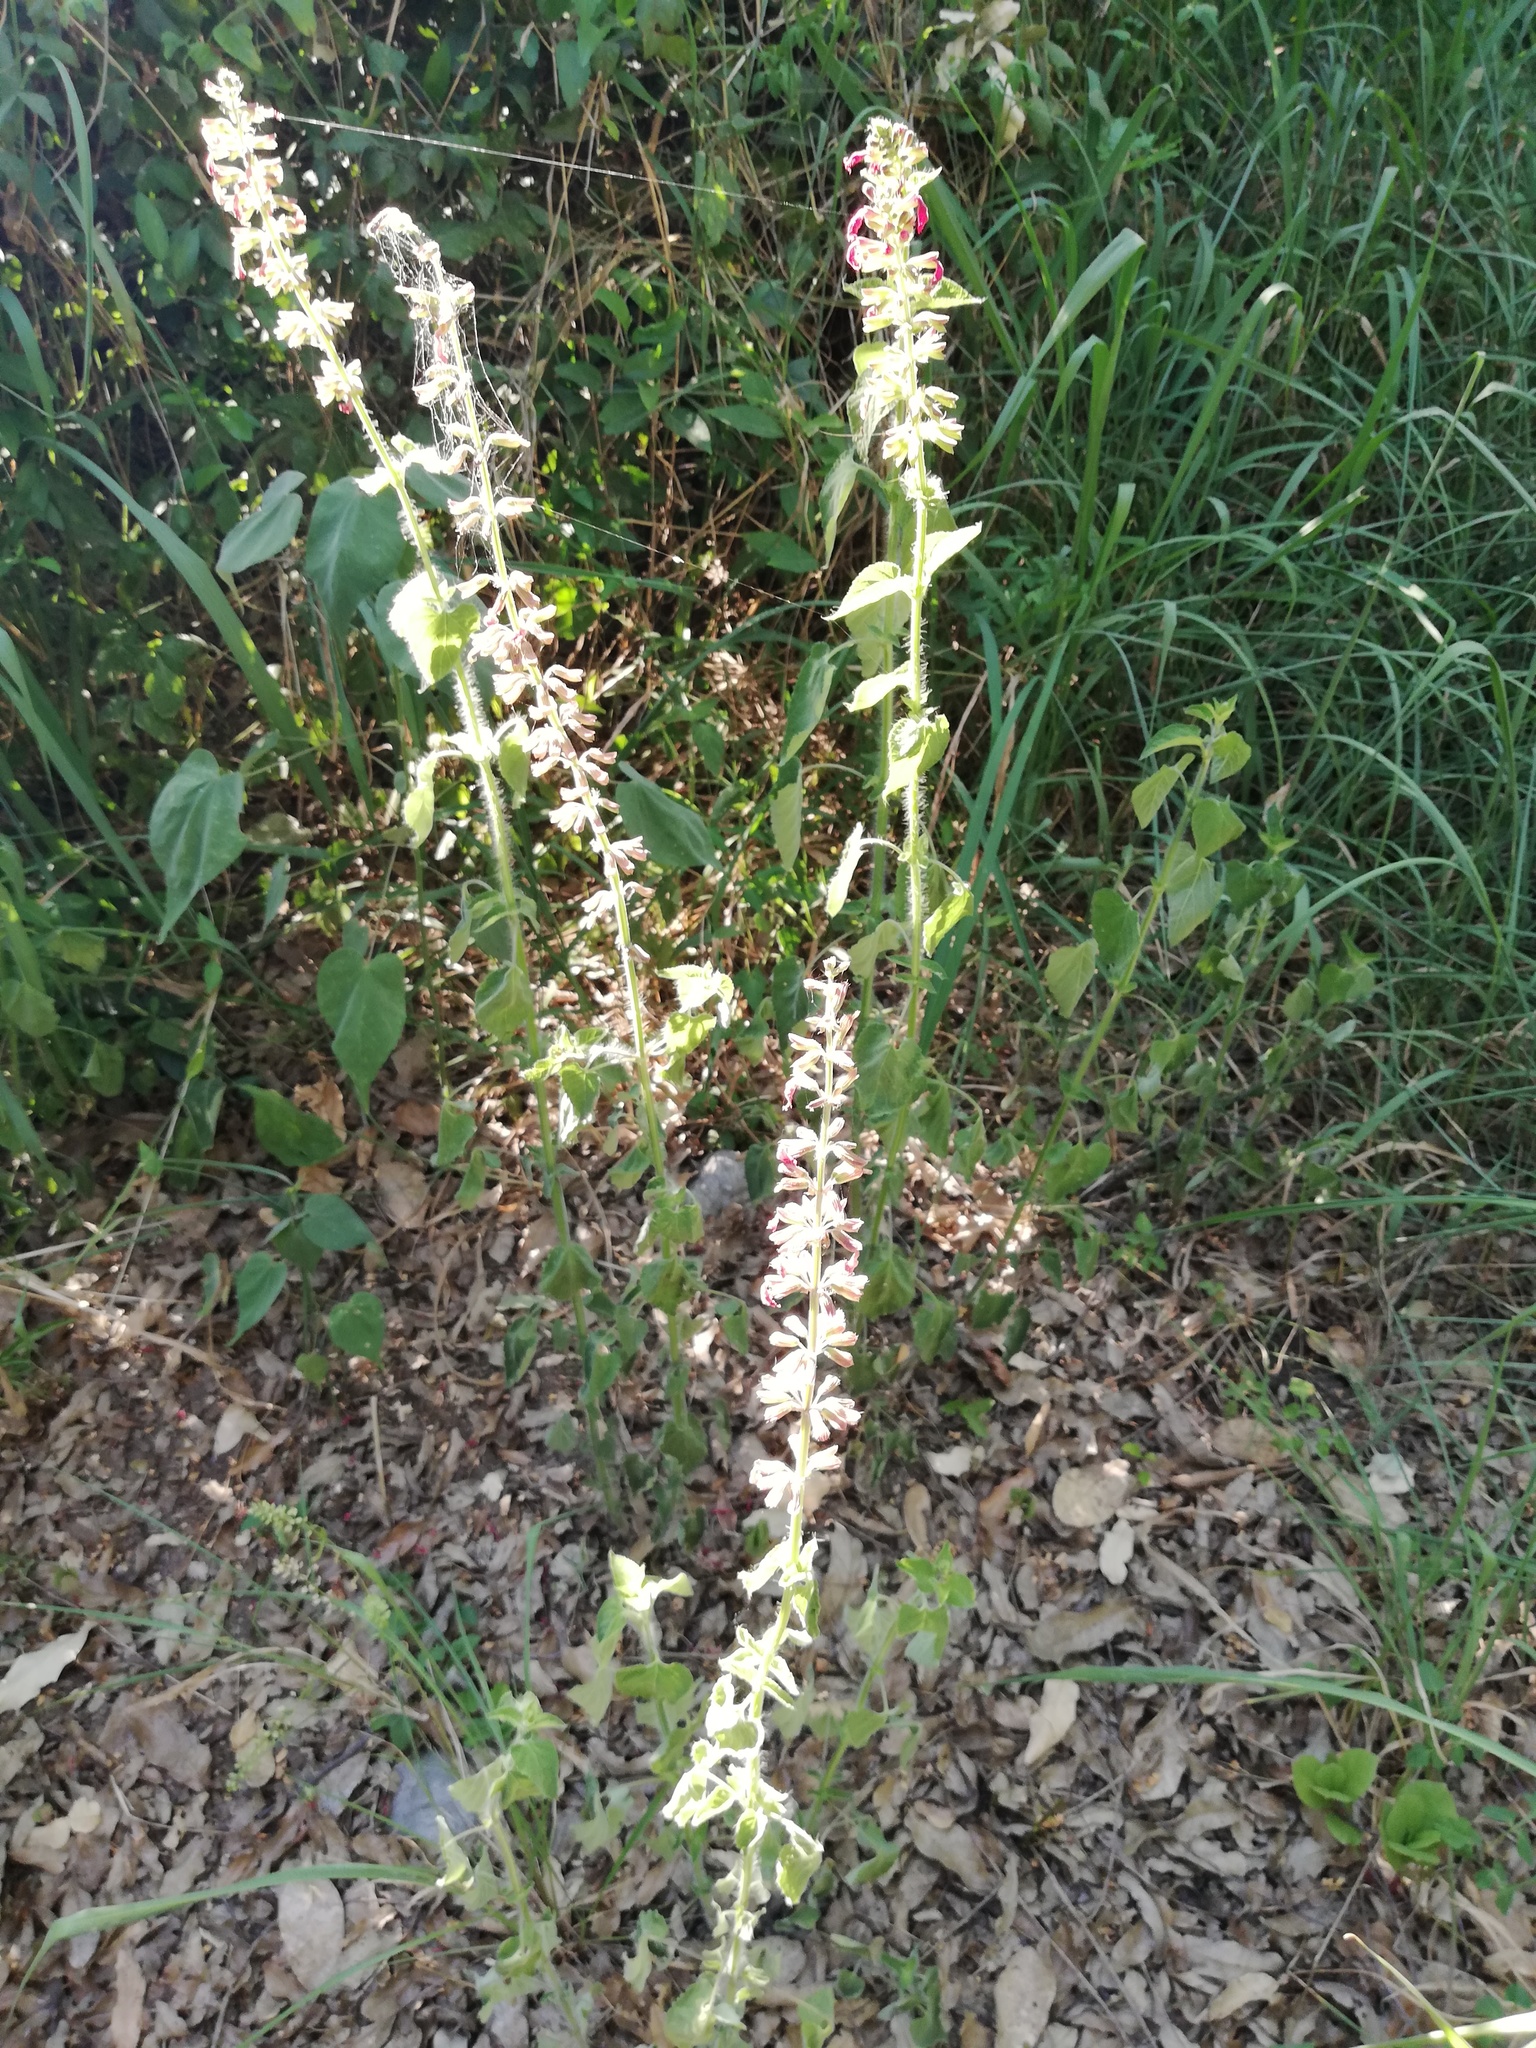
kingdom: Plantae
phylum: Tracheophyta
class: Magnoliopsida
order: Lamiales
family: Lamiaceae
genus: Salvia
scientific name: Salvia coccinea
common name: Blood sage
